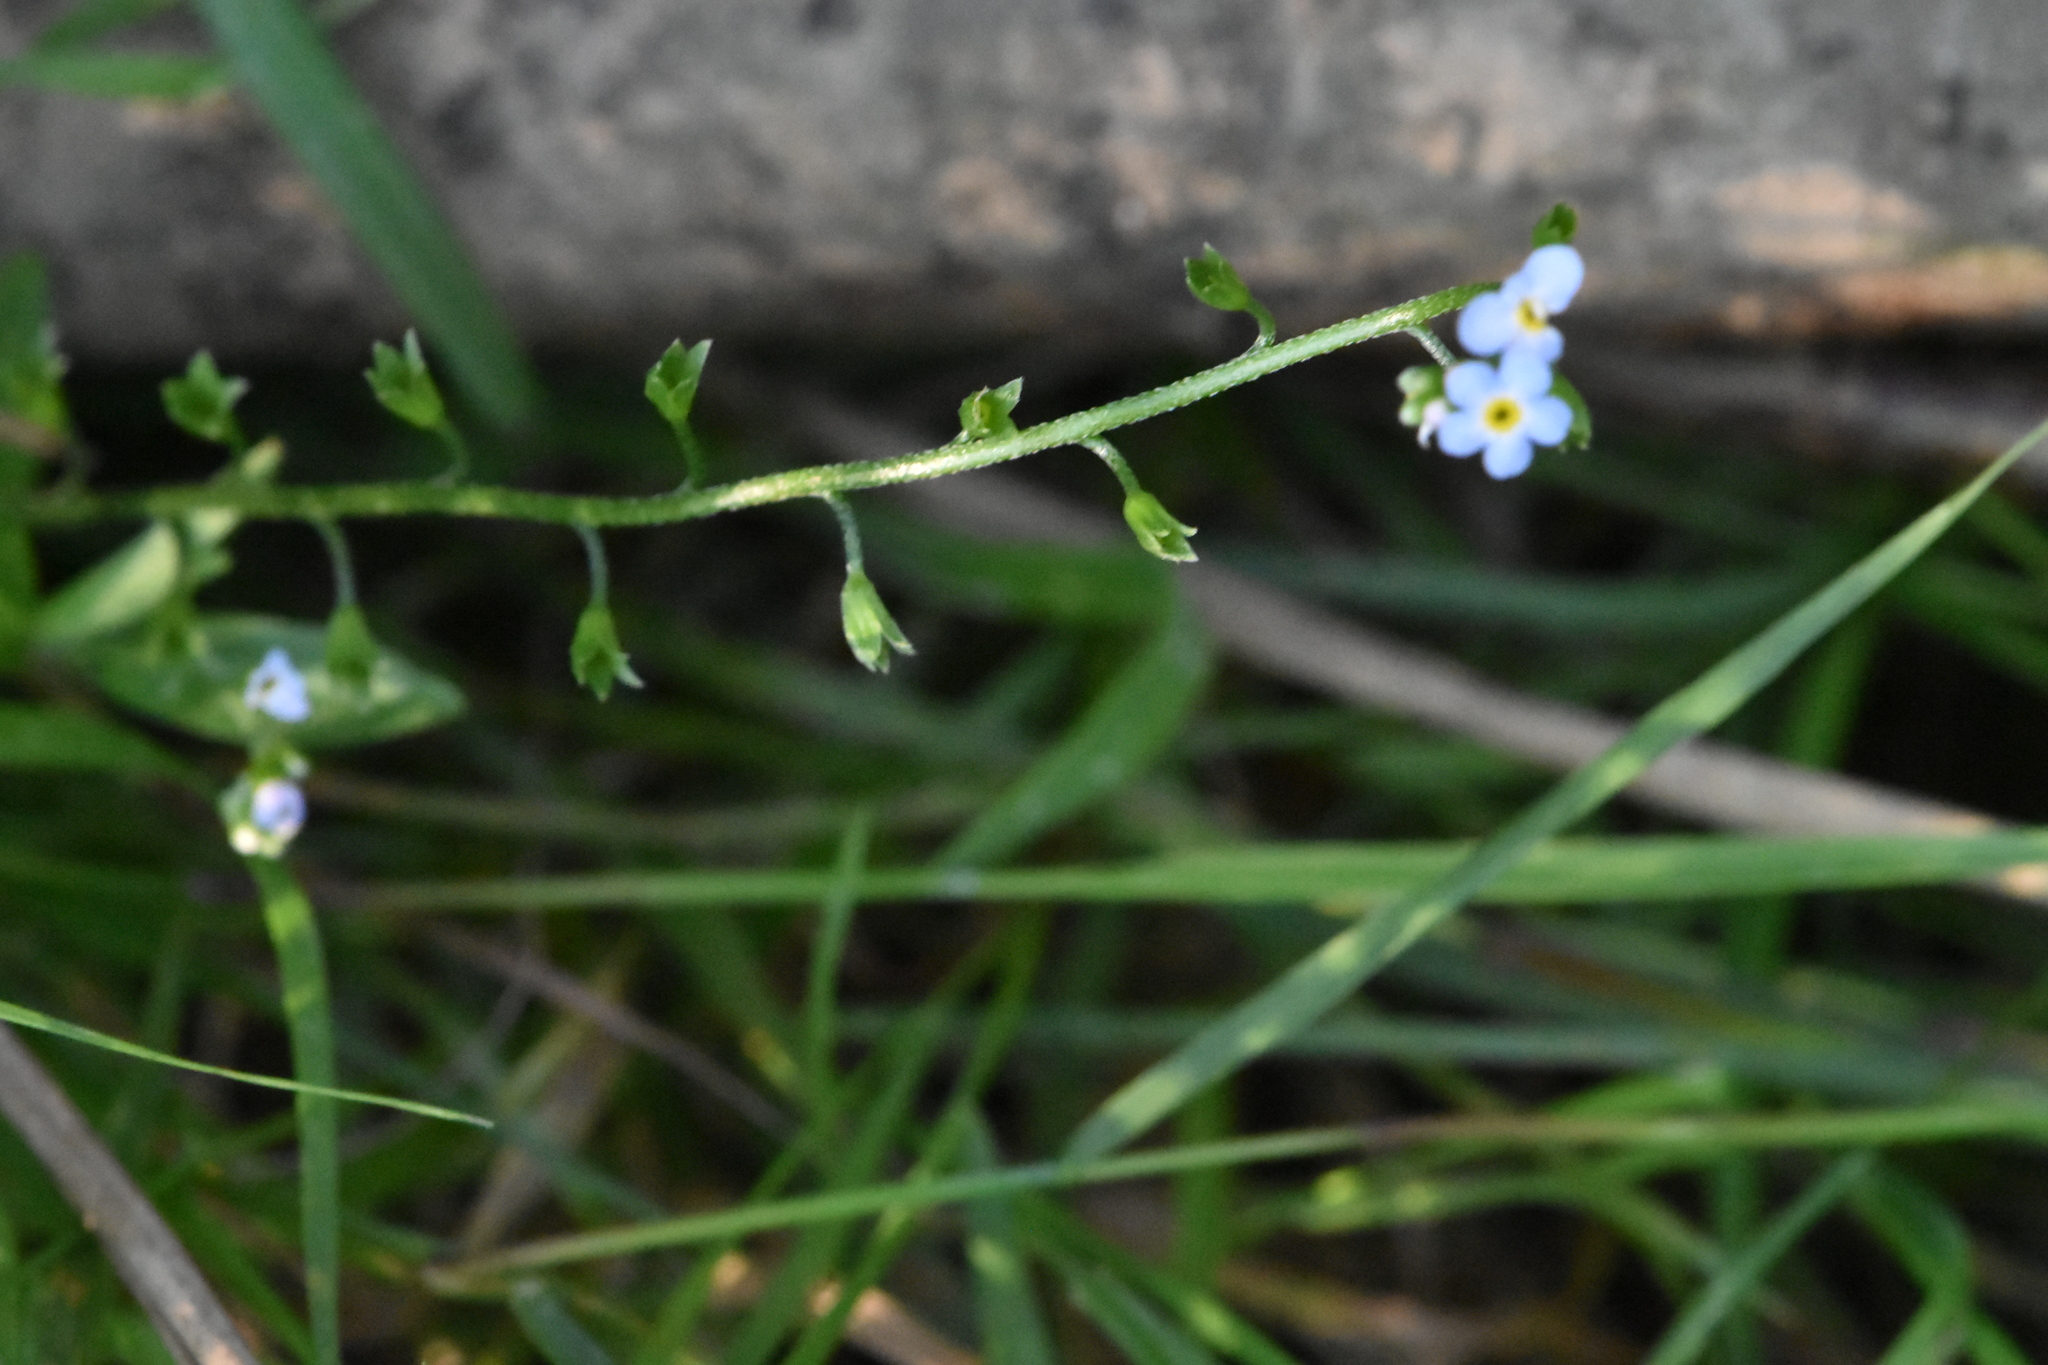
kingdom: Plantae
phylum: Tracheophyta
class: Magnoliopsida
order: Boraginales
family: Boraginaceae
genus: Myosotis
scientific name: Myosotis scorpioides
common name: Water forget-me-not
